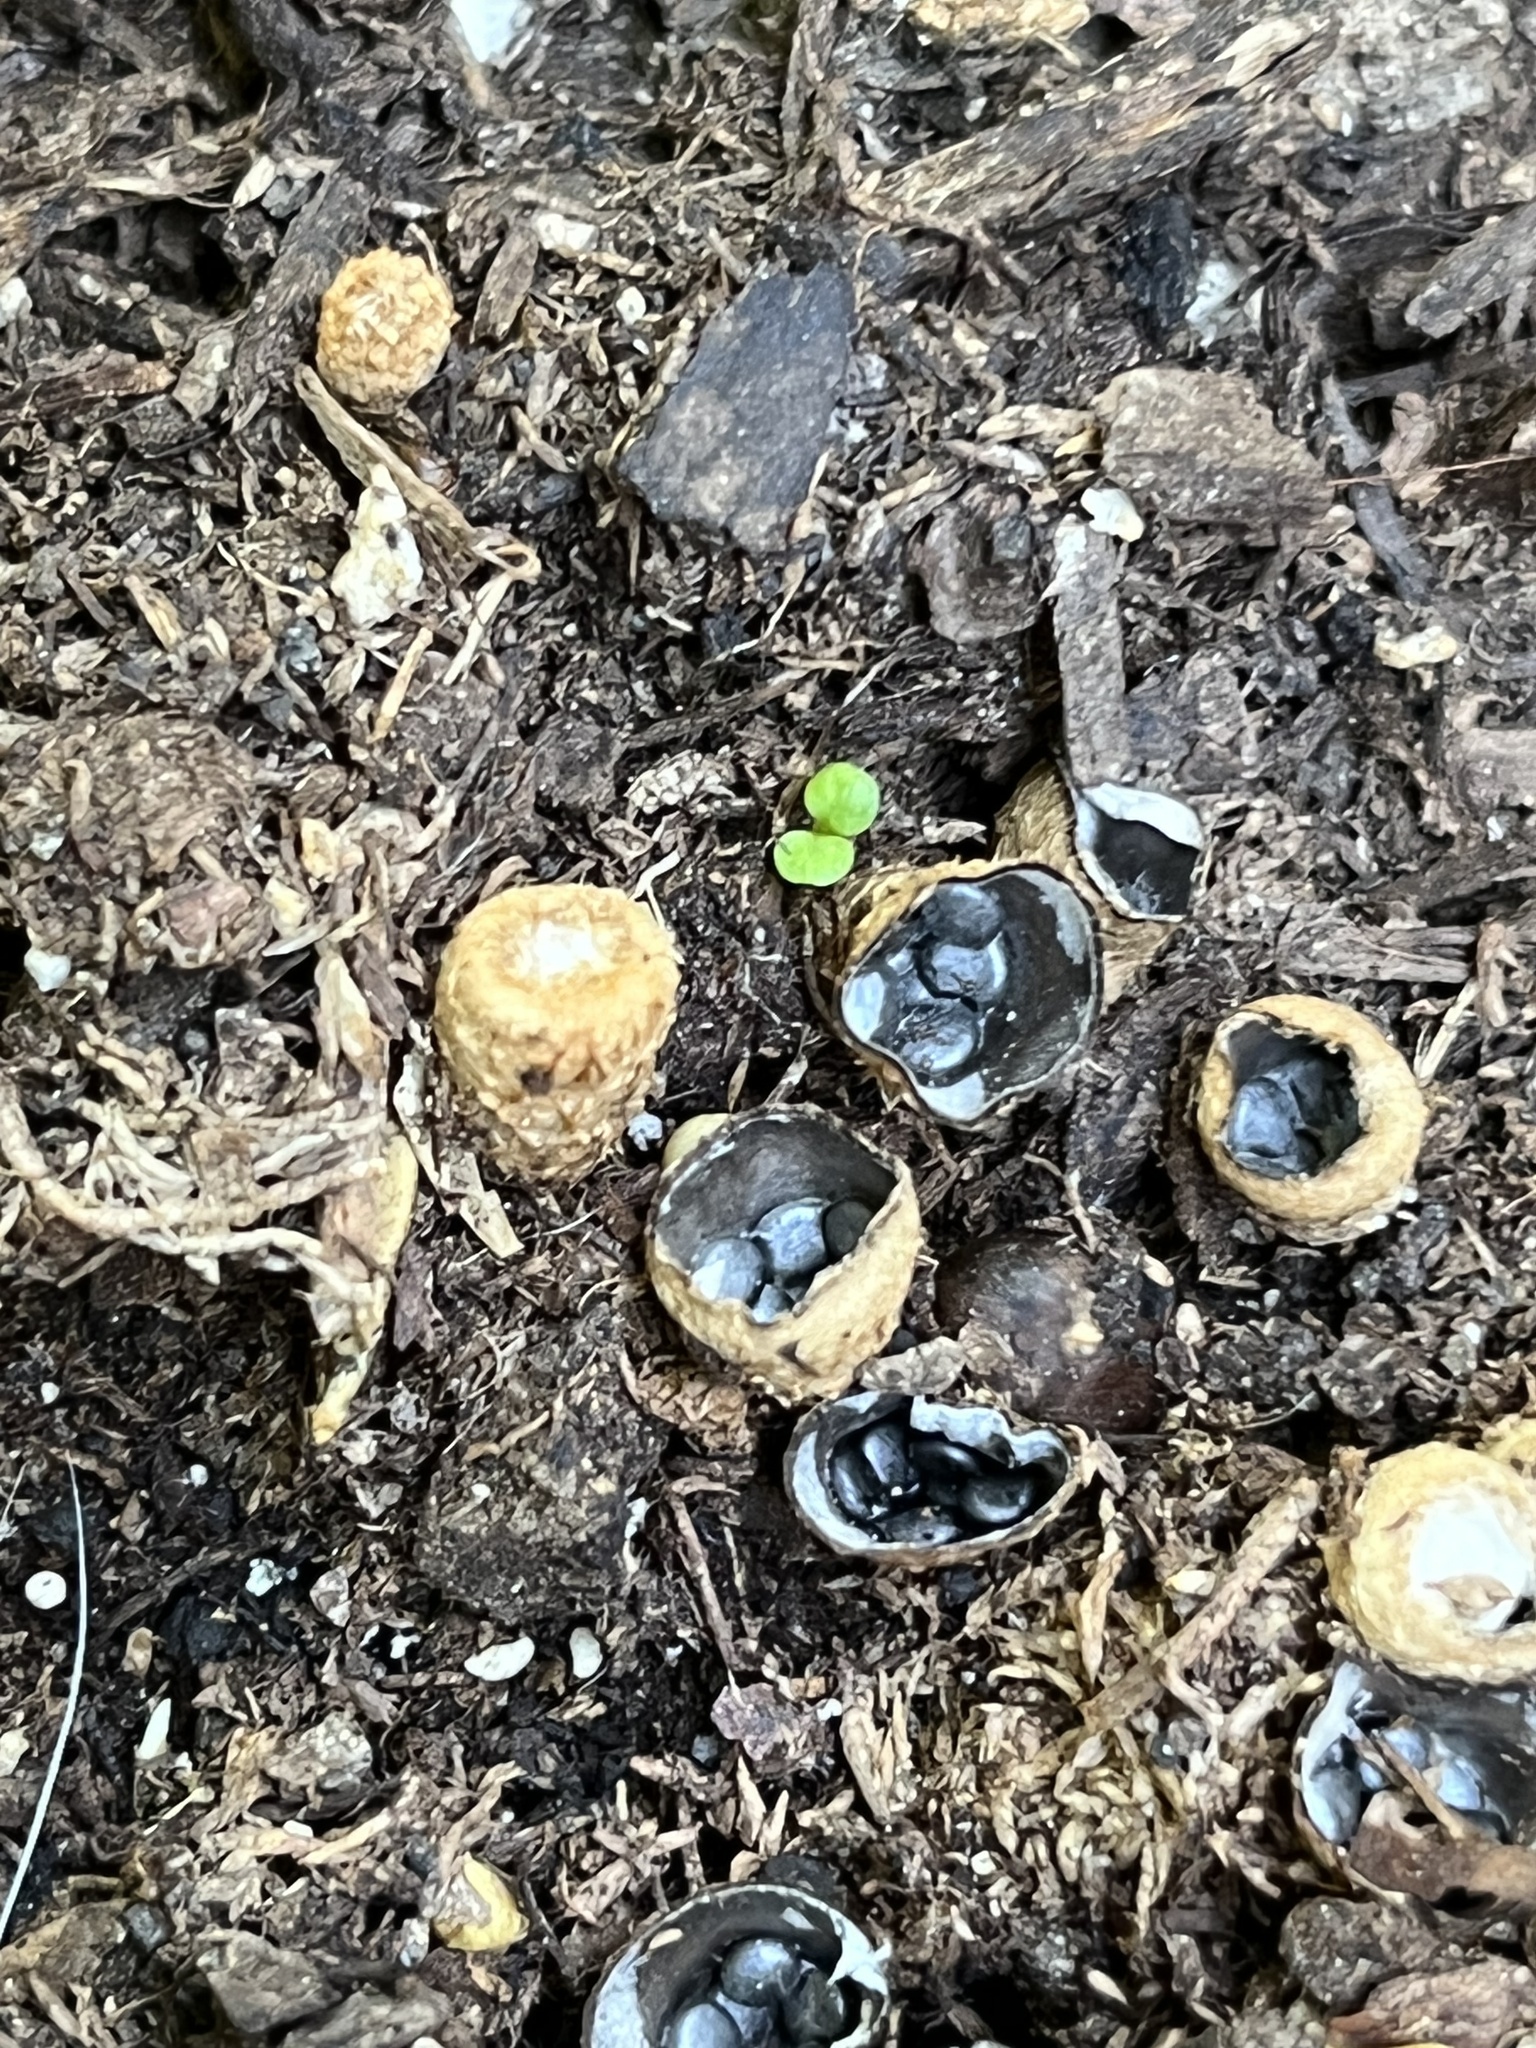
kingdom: Fungi
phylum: Basidiomycota
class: Agaricomycetes
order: Agaricales
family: Agaricaceae
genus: Cyathus
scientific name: Cyathus stercoreus
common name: Dung bird's nest
